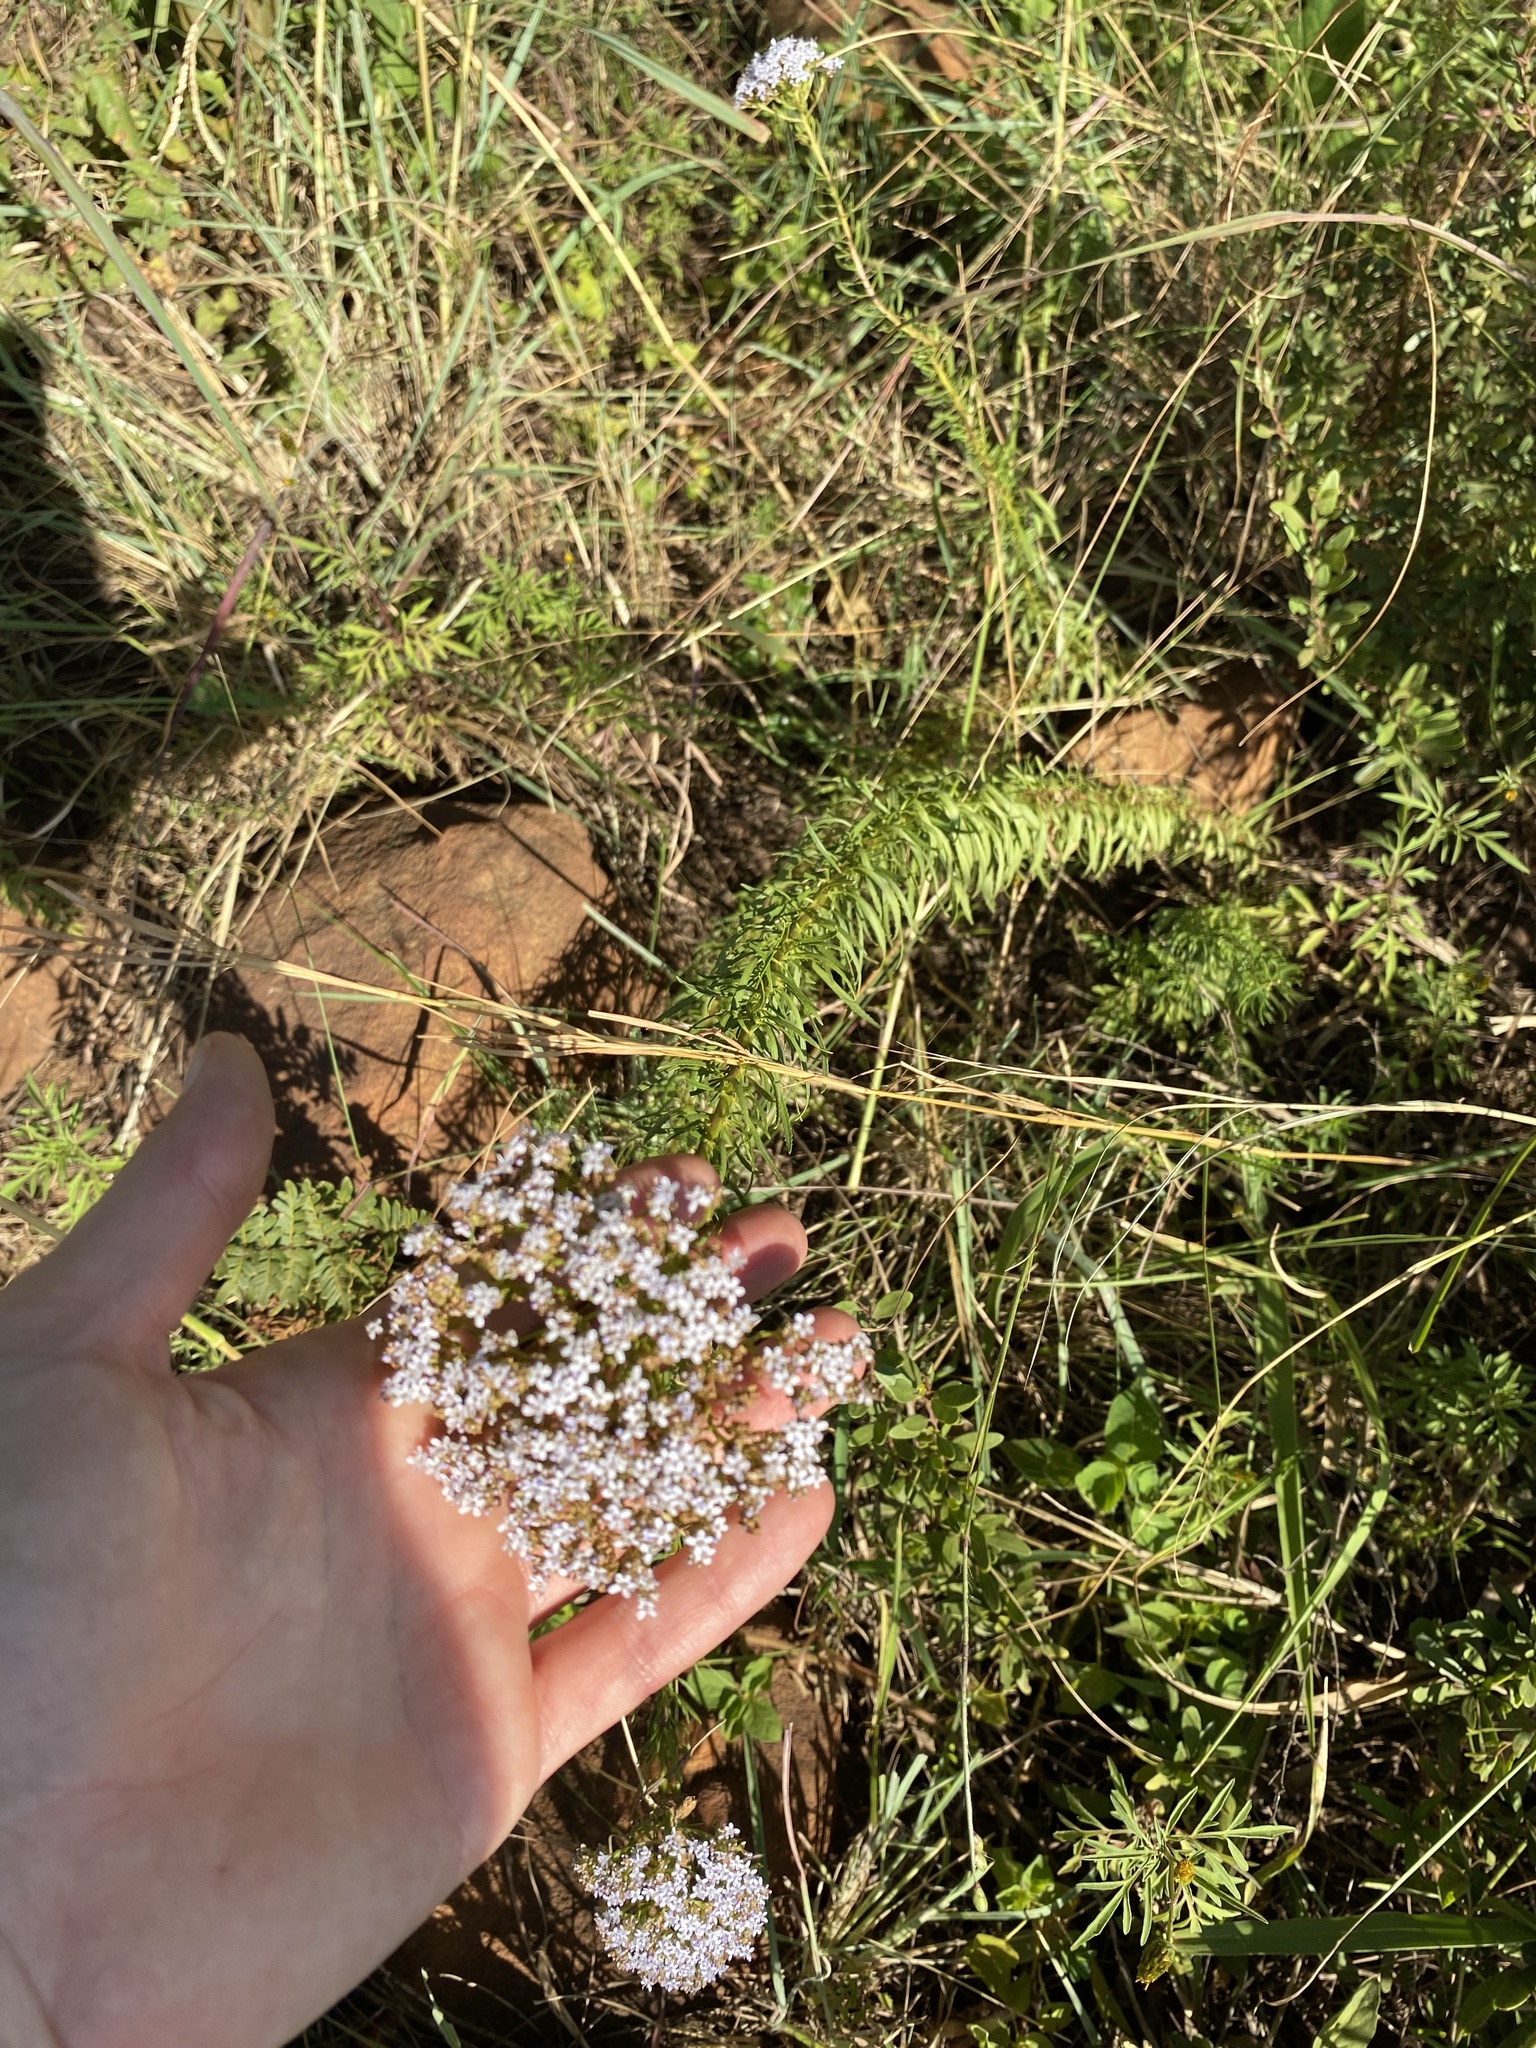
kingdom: Plantae
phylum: Tracheophyta
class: Magnoliopsida
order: Lamiales
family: Scrophulariaceae
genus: Tetraselago
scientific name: Tetraselago natalensis
